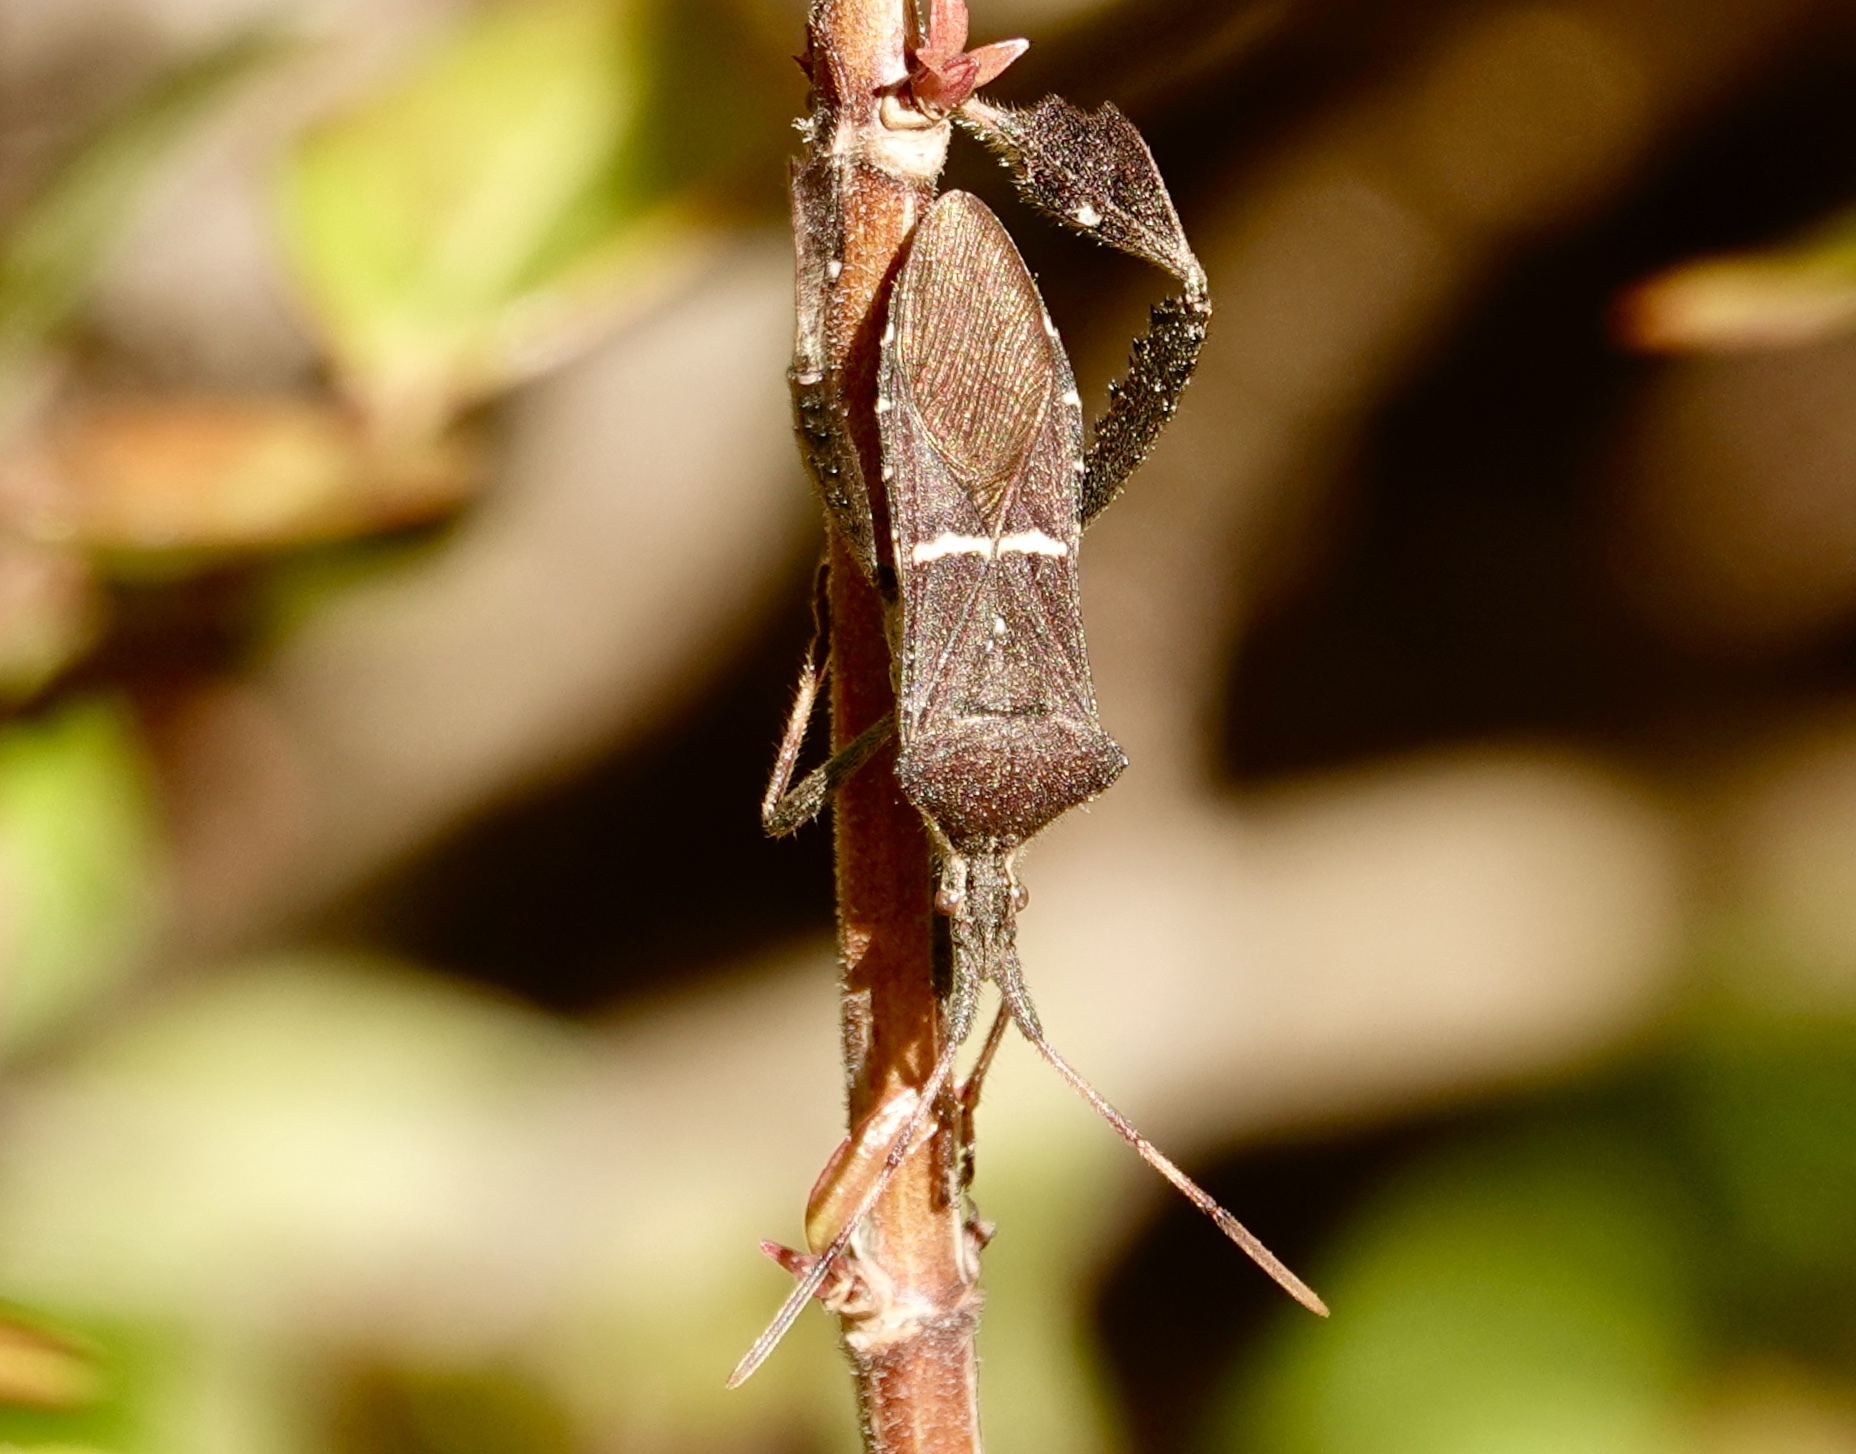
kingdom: Animalia
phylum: Arthropoda
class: Insecta
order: Hemiptera
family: Coreidae
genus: Leptoglossus
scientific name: Leptoglossus phyllopus
